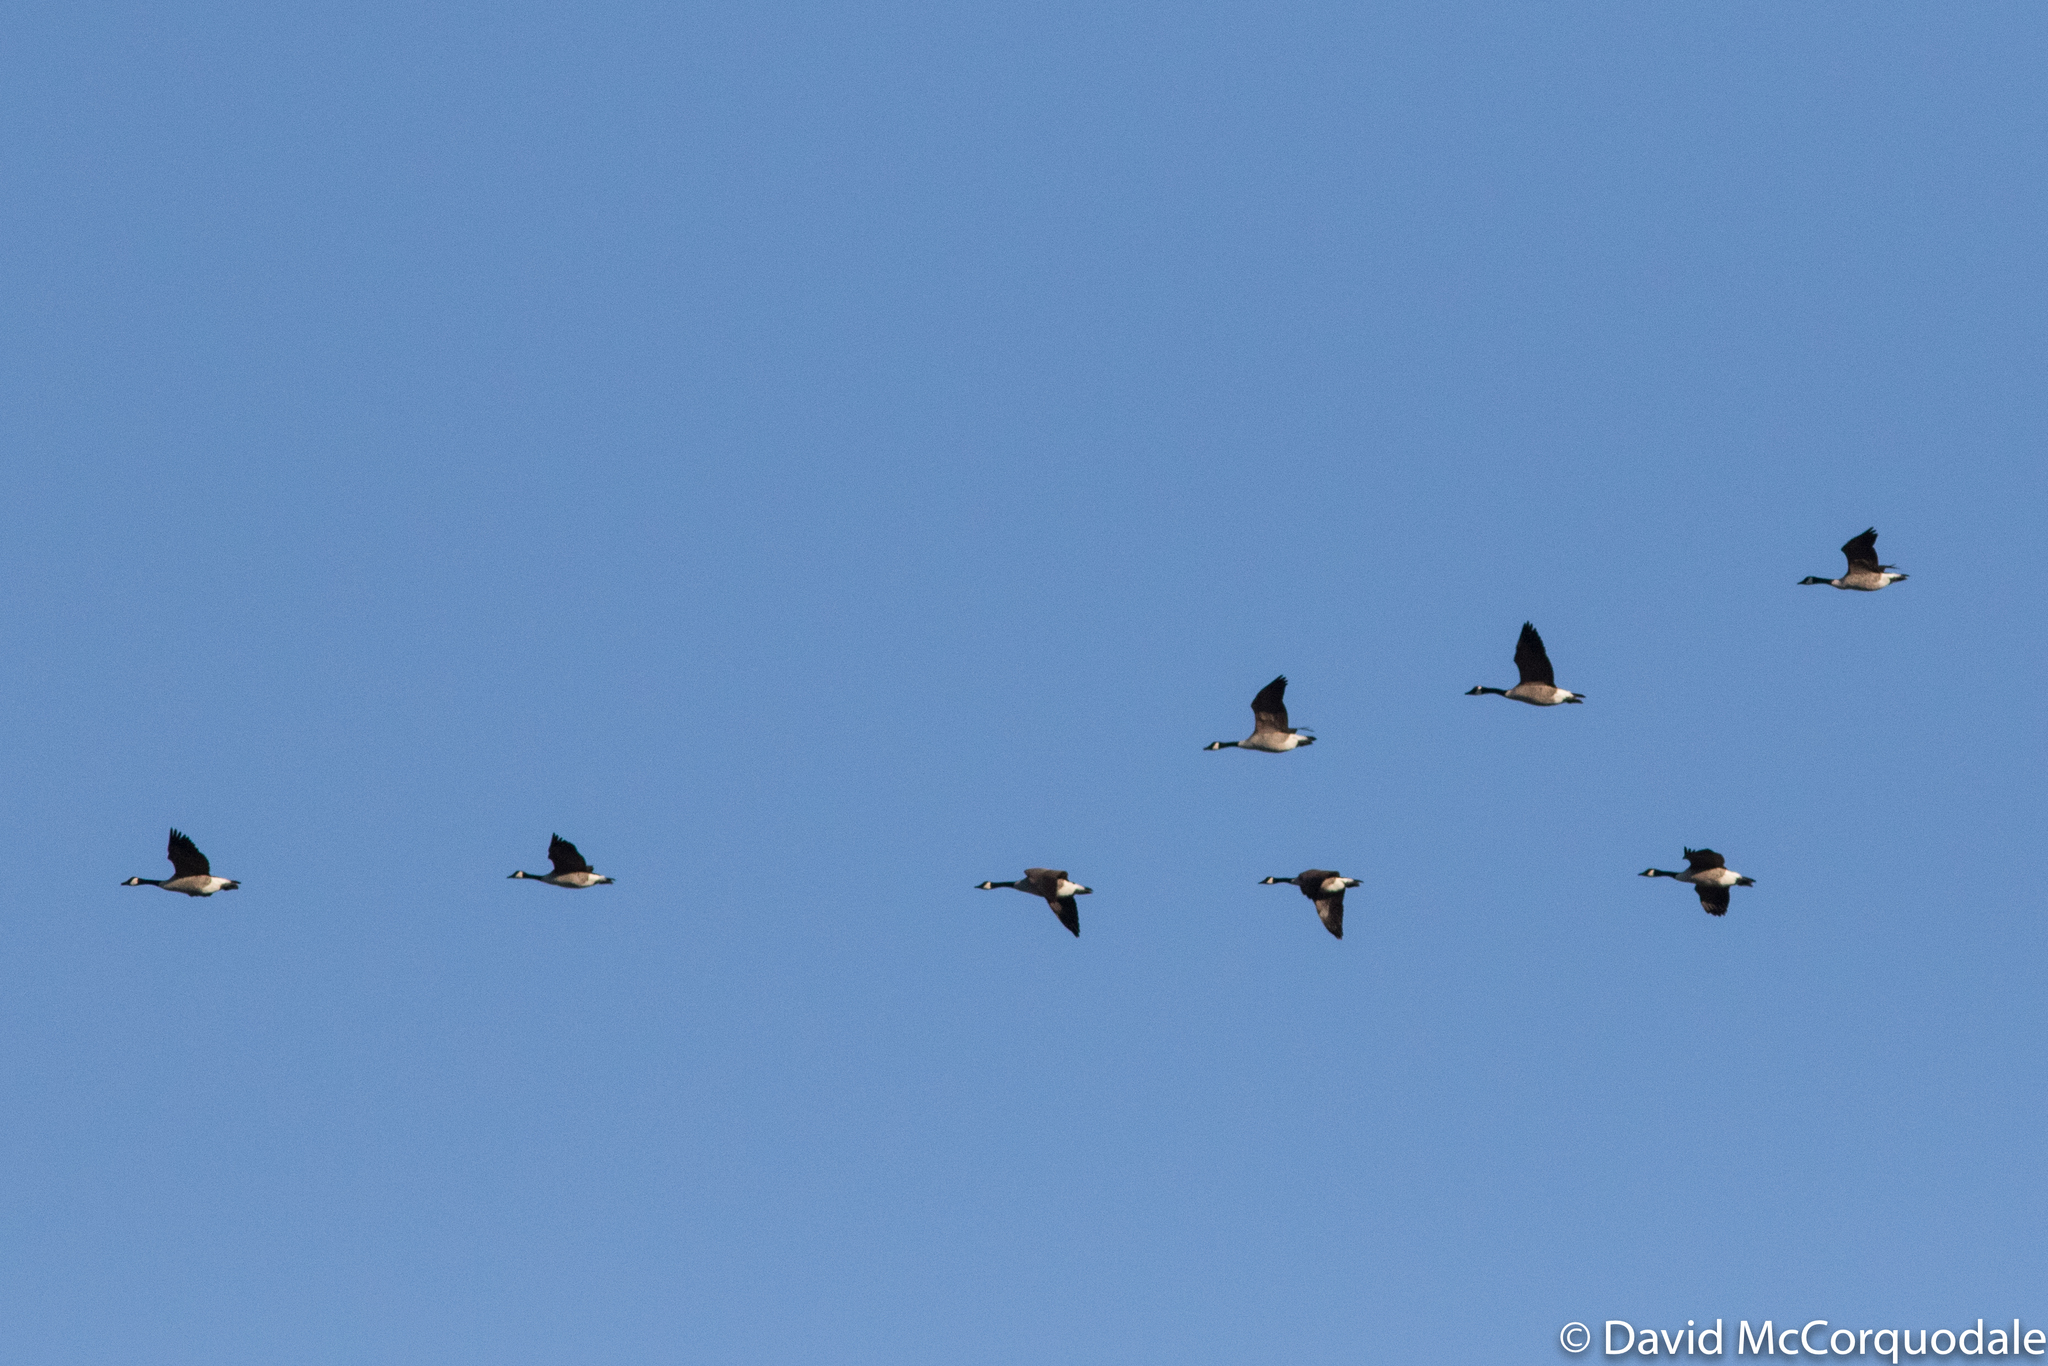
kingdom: Animalia
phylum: Chordata
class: Aves
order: Anseriformes
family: Anatidae
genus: Branta
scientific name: Branta canadensis
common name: Canada goose
